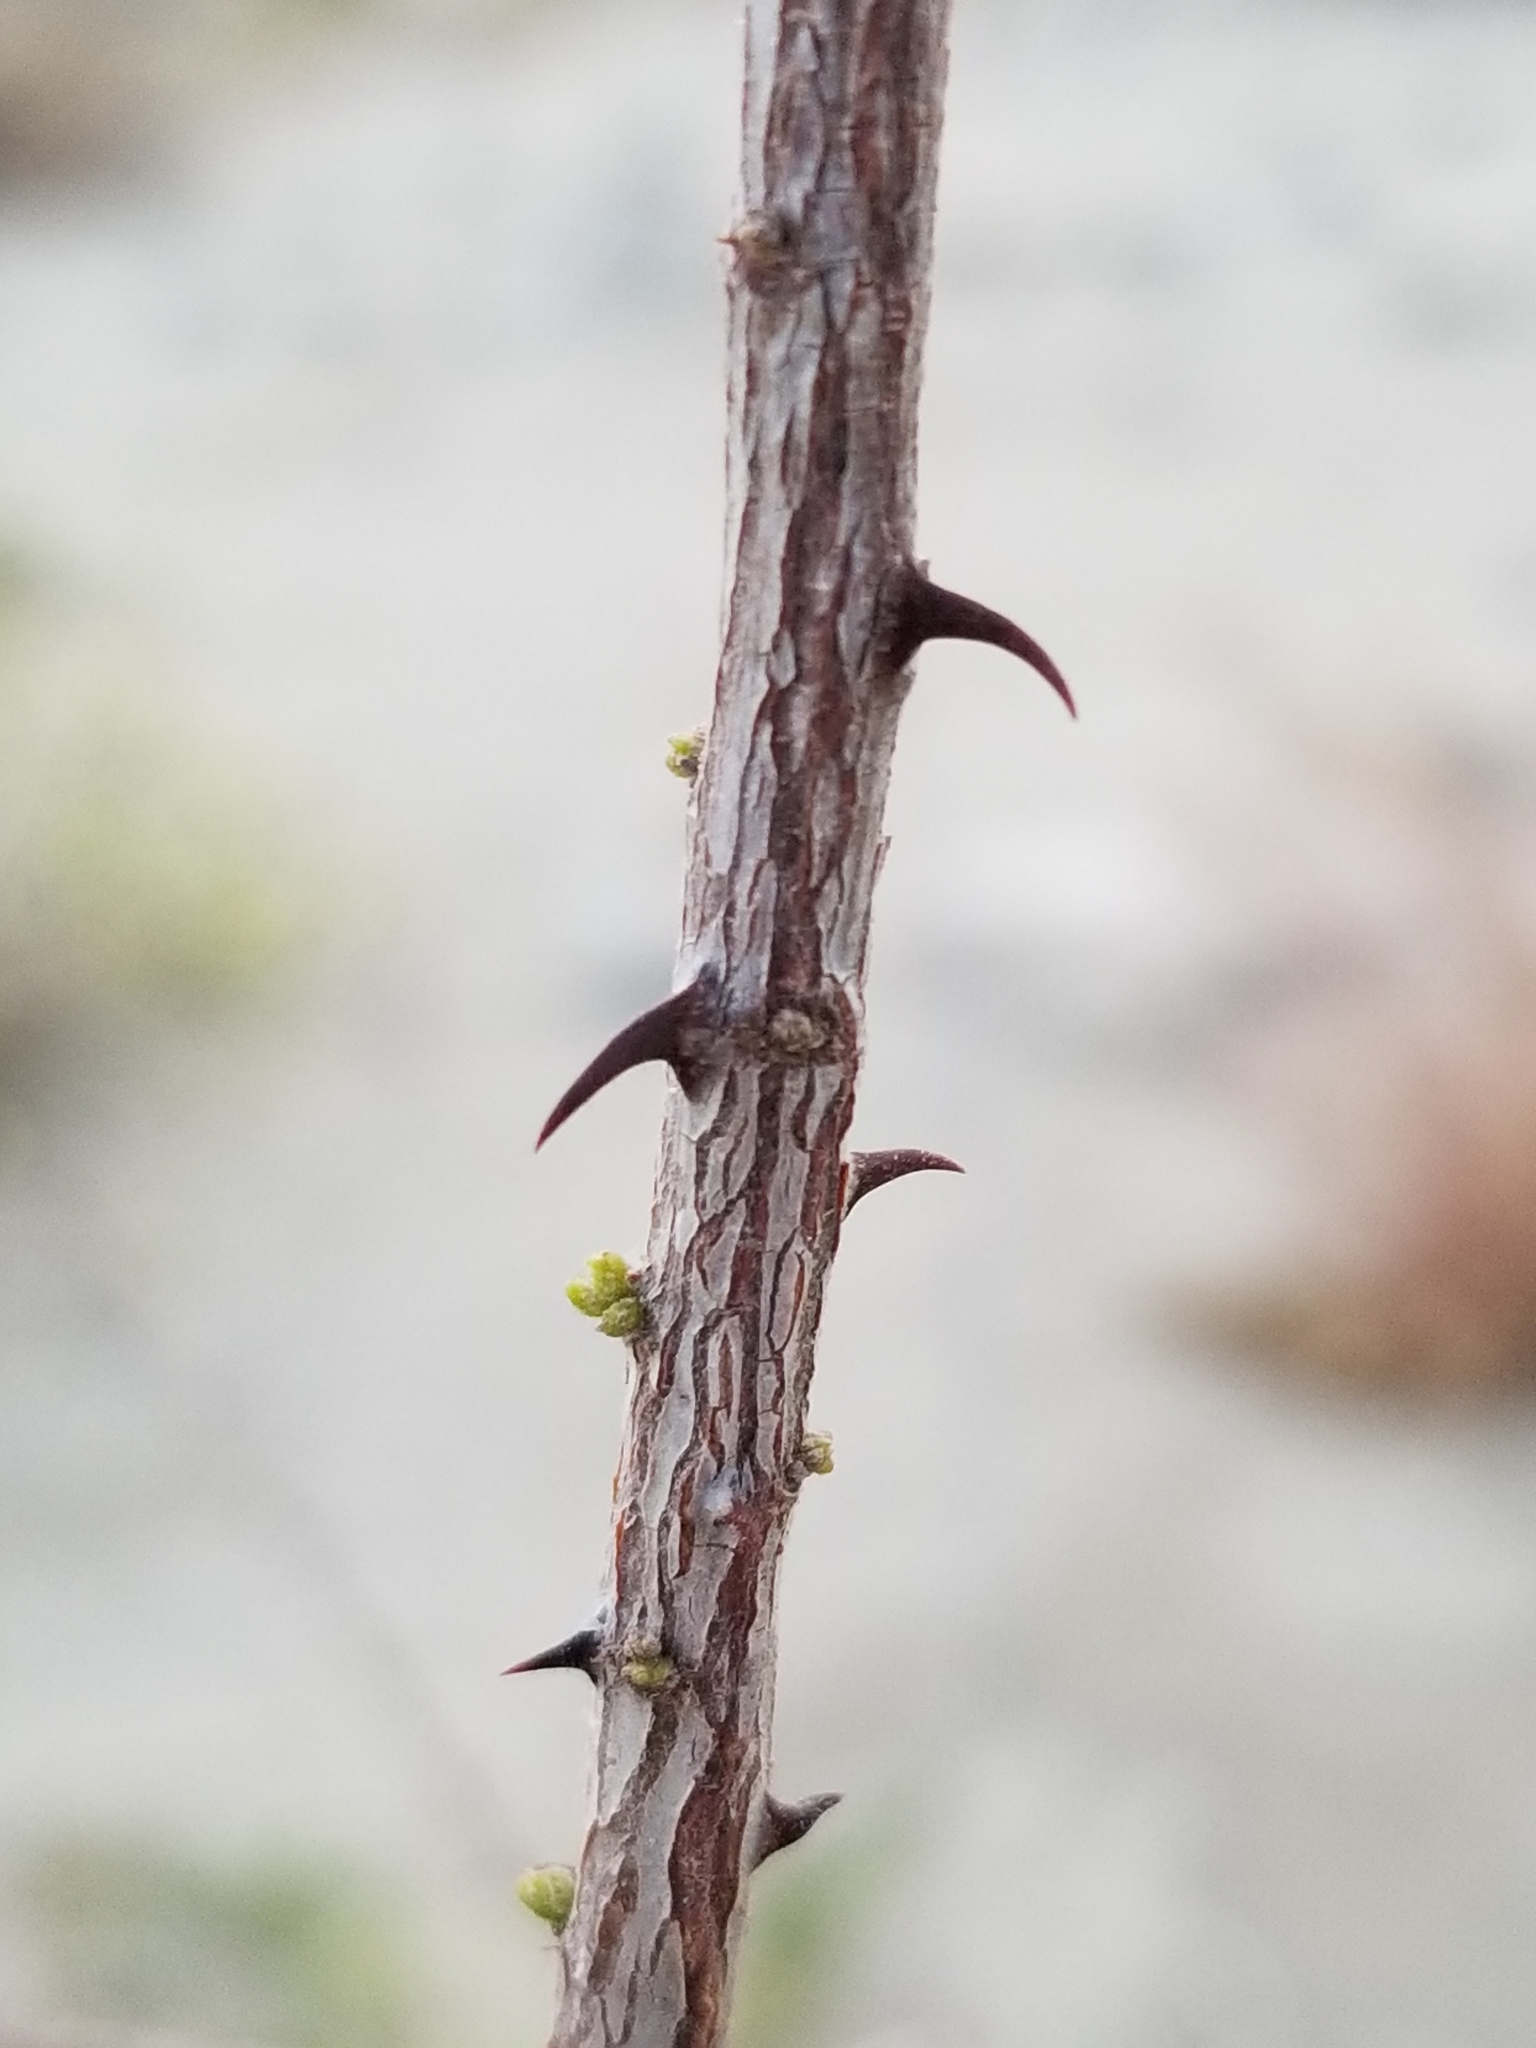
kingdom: Plantae
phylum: Tracheophyta
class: Magnoliopsida
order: Fabales
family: Fabaceae
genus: Senegalia
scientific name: Senegalia greggii
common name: Texas-mimosa
